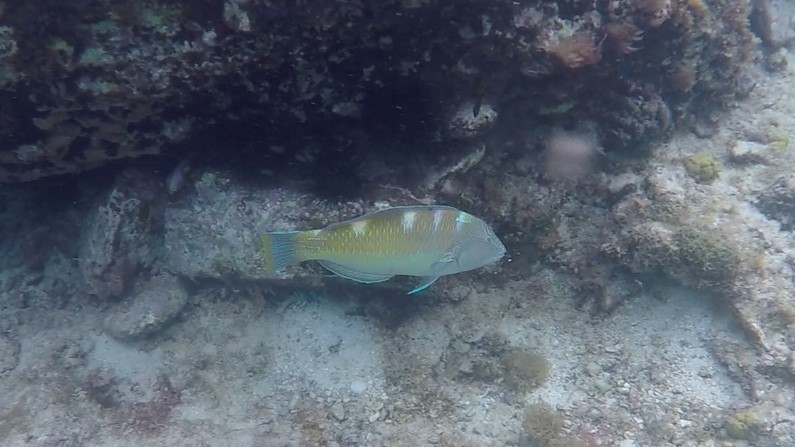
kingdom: Animalia
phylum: Chordata
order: Perciformes
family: Labridae
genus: Halichoeres
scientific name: Halichoeres radiatus
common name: Puddingwife
